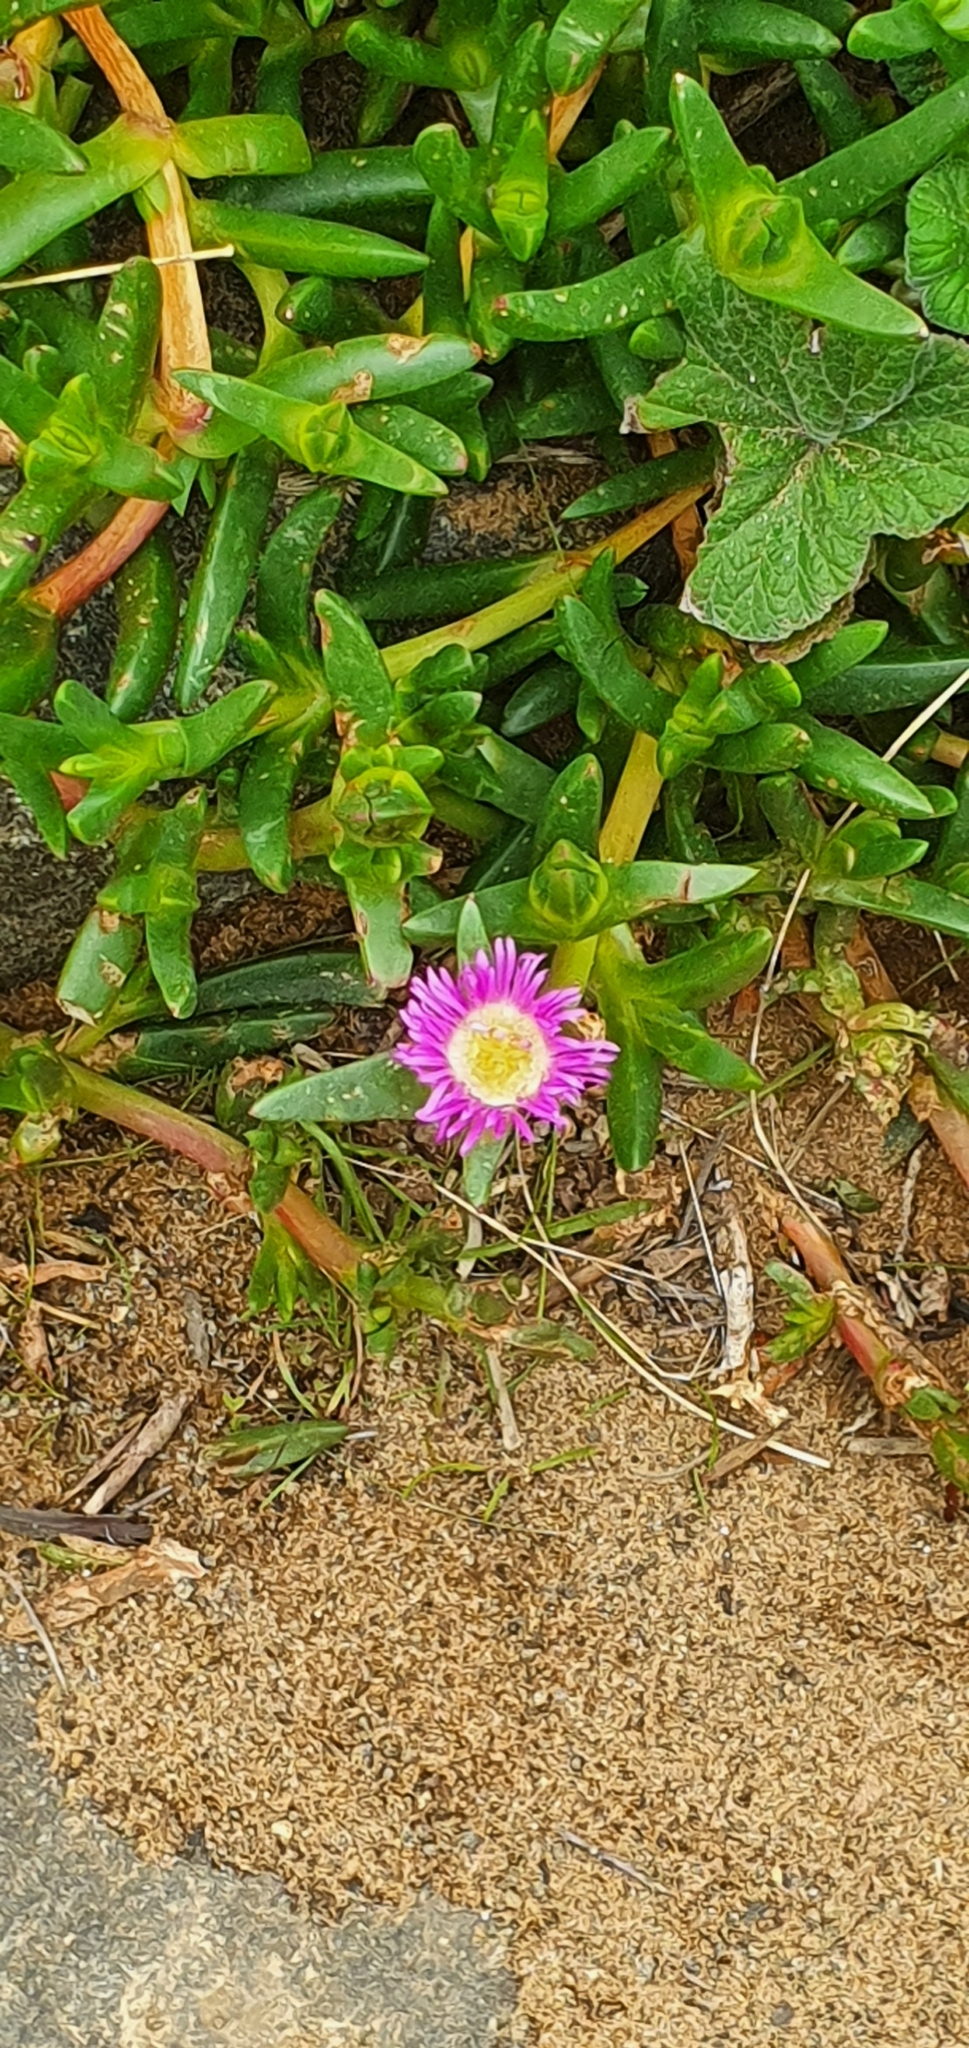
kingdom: Plantae
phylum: Tracheophyta
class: Magnoliopsida
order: Caryophyllales
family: Aizoaceae
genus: Carpobrotus
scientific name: Carpobrotus rossii
